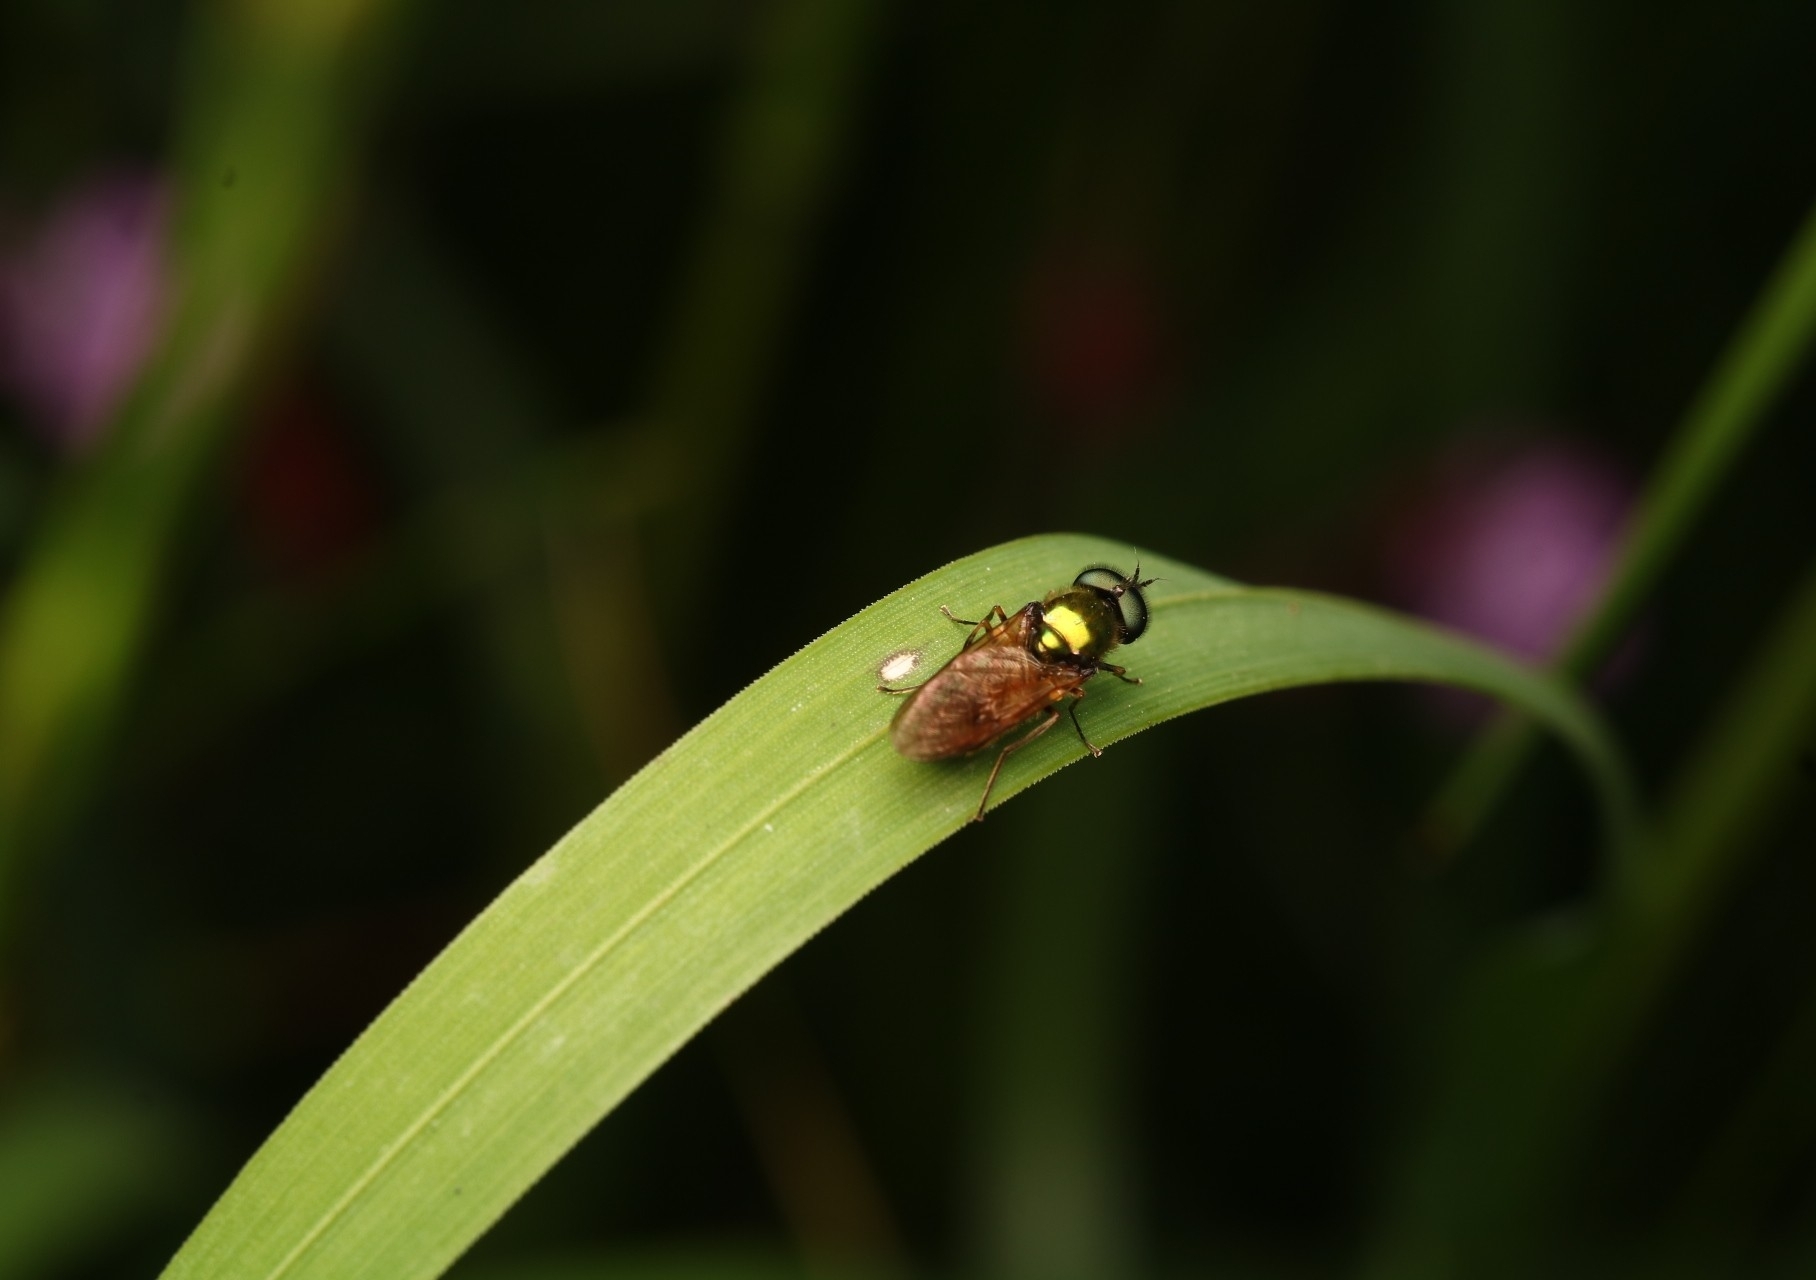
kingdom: Animalia
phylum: Arthropoda
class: Insecta
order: Diptera
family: Stratiomyidae
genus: Chloromyia
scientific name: Chloromyia formosa
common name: Soldier fly
